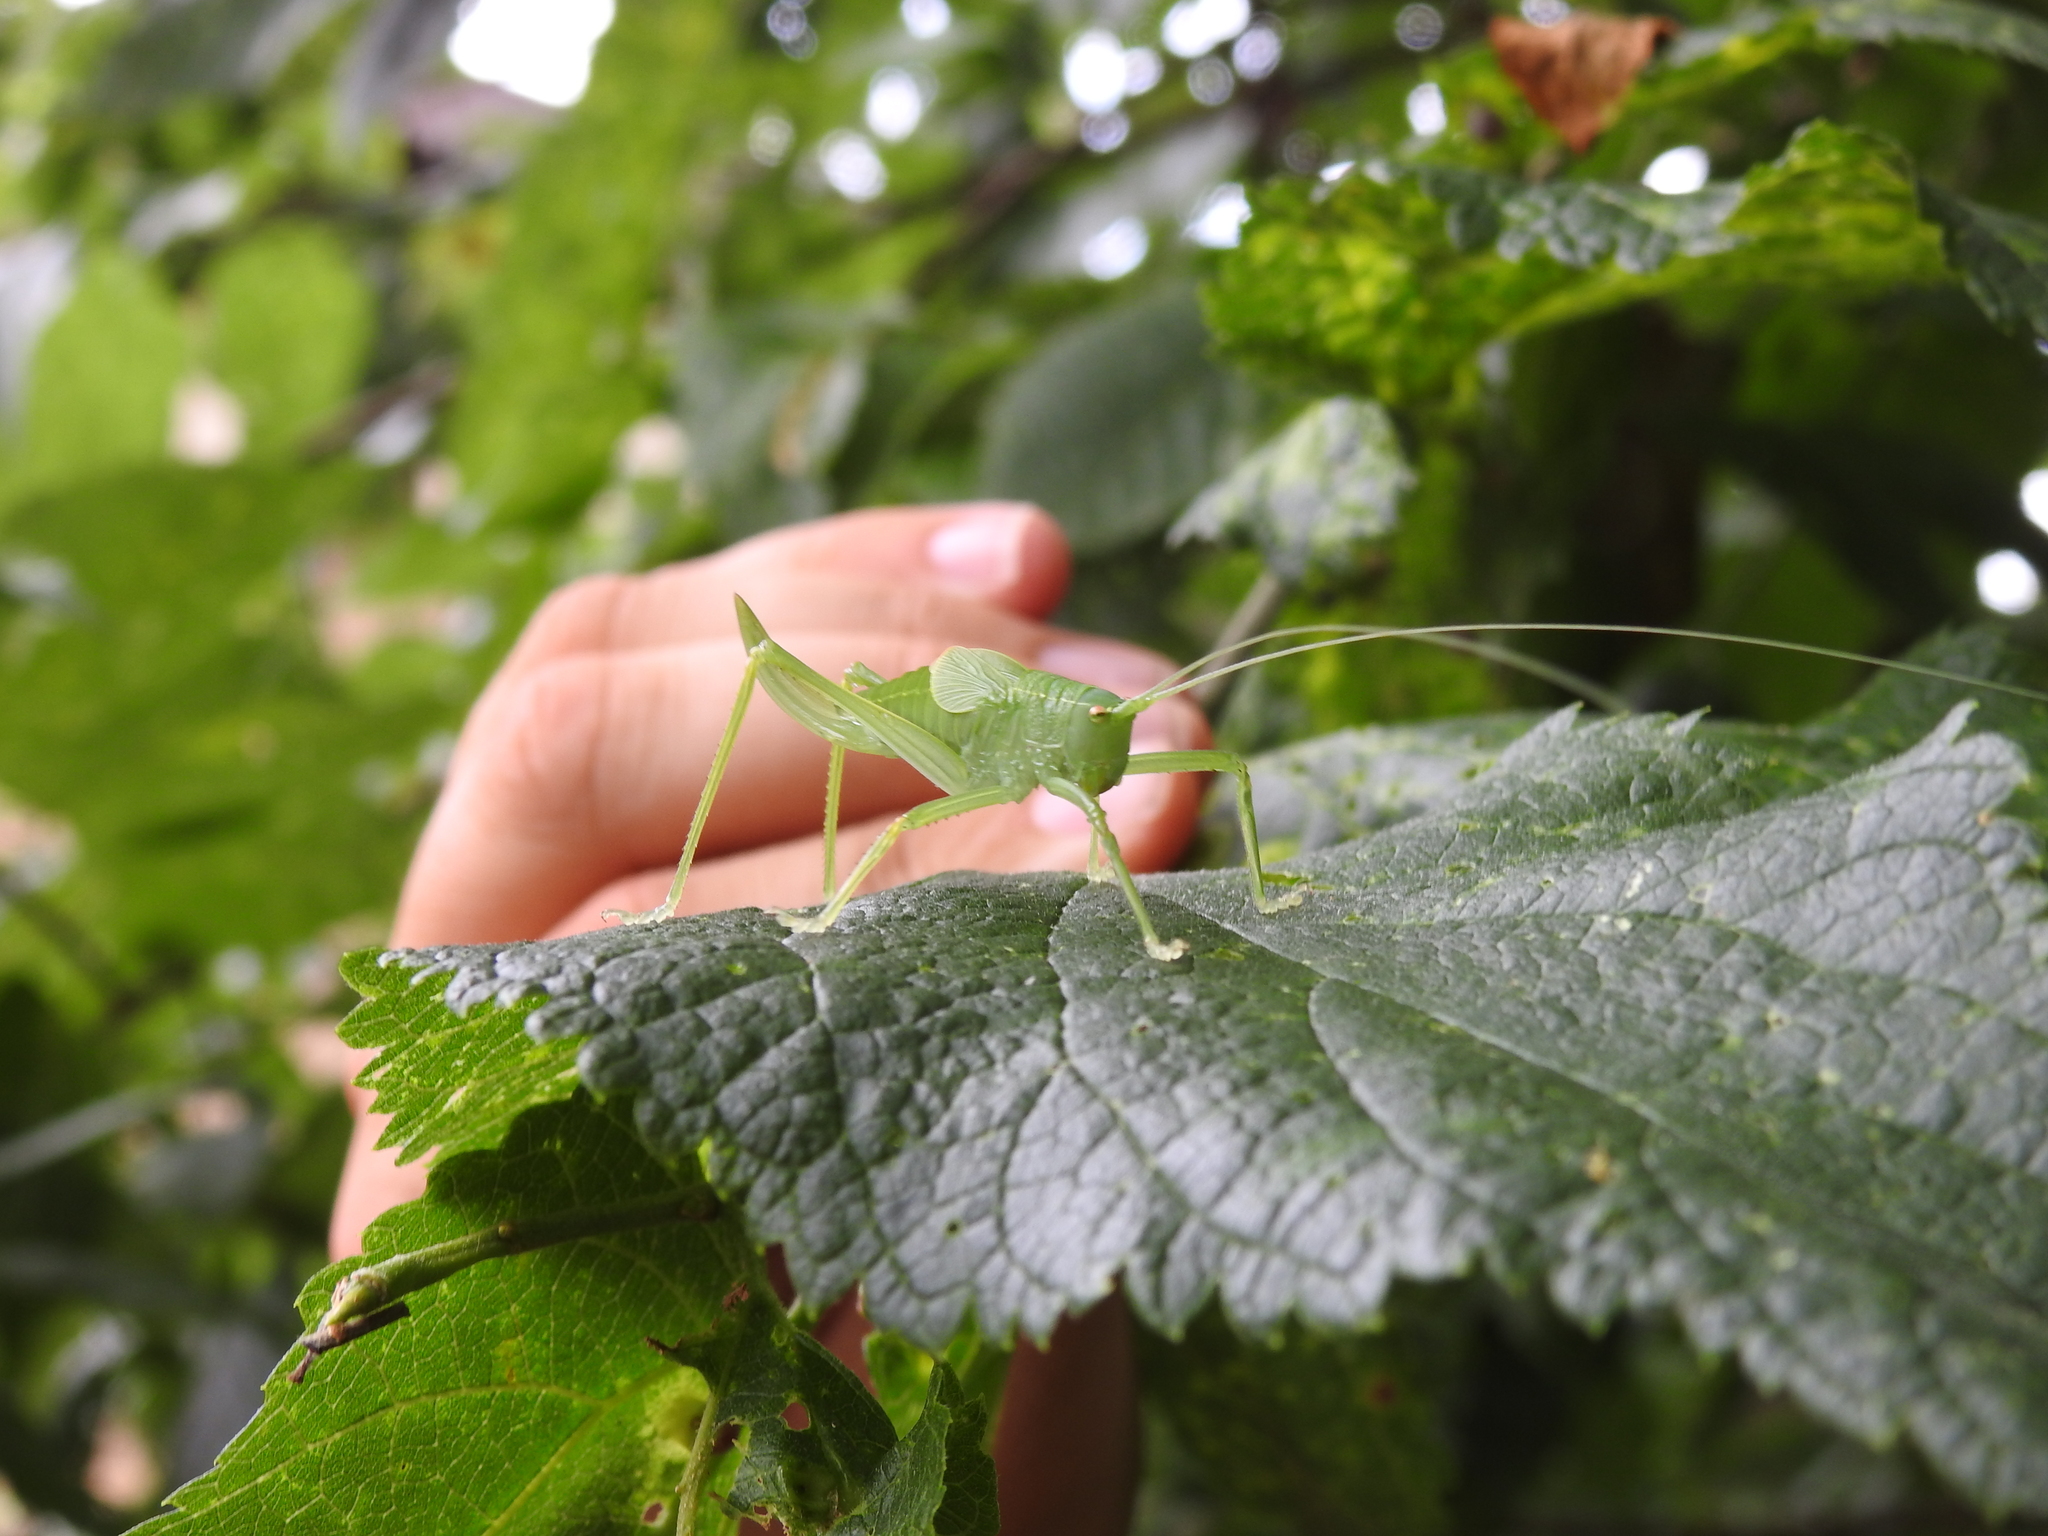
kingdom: Animalia
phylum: Arthropoda
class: Insecta
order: Orthoptera
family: Tettigoniidae
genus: Pterophylla
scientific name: Pterophylla camellifolia
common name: Common true katydid
